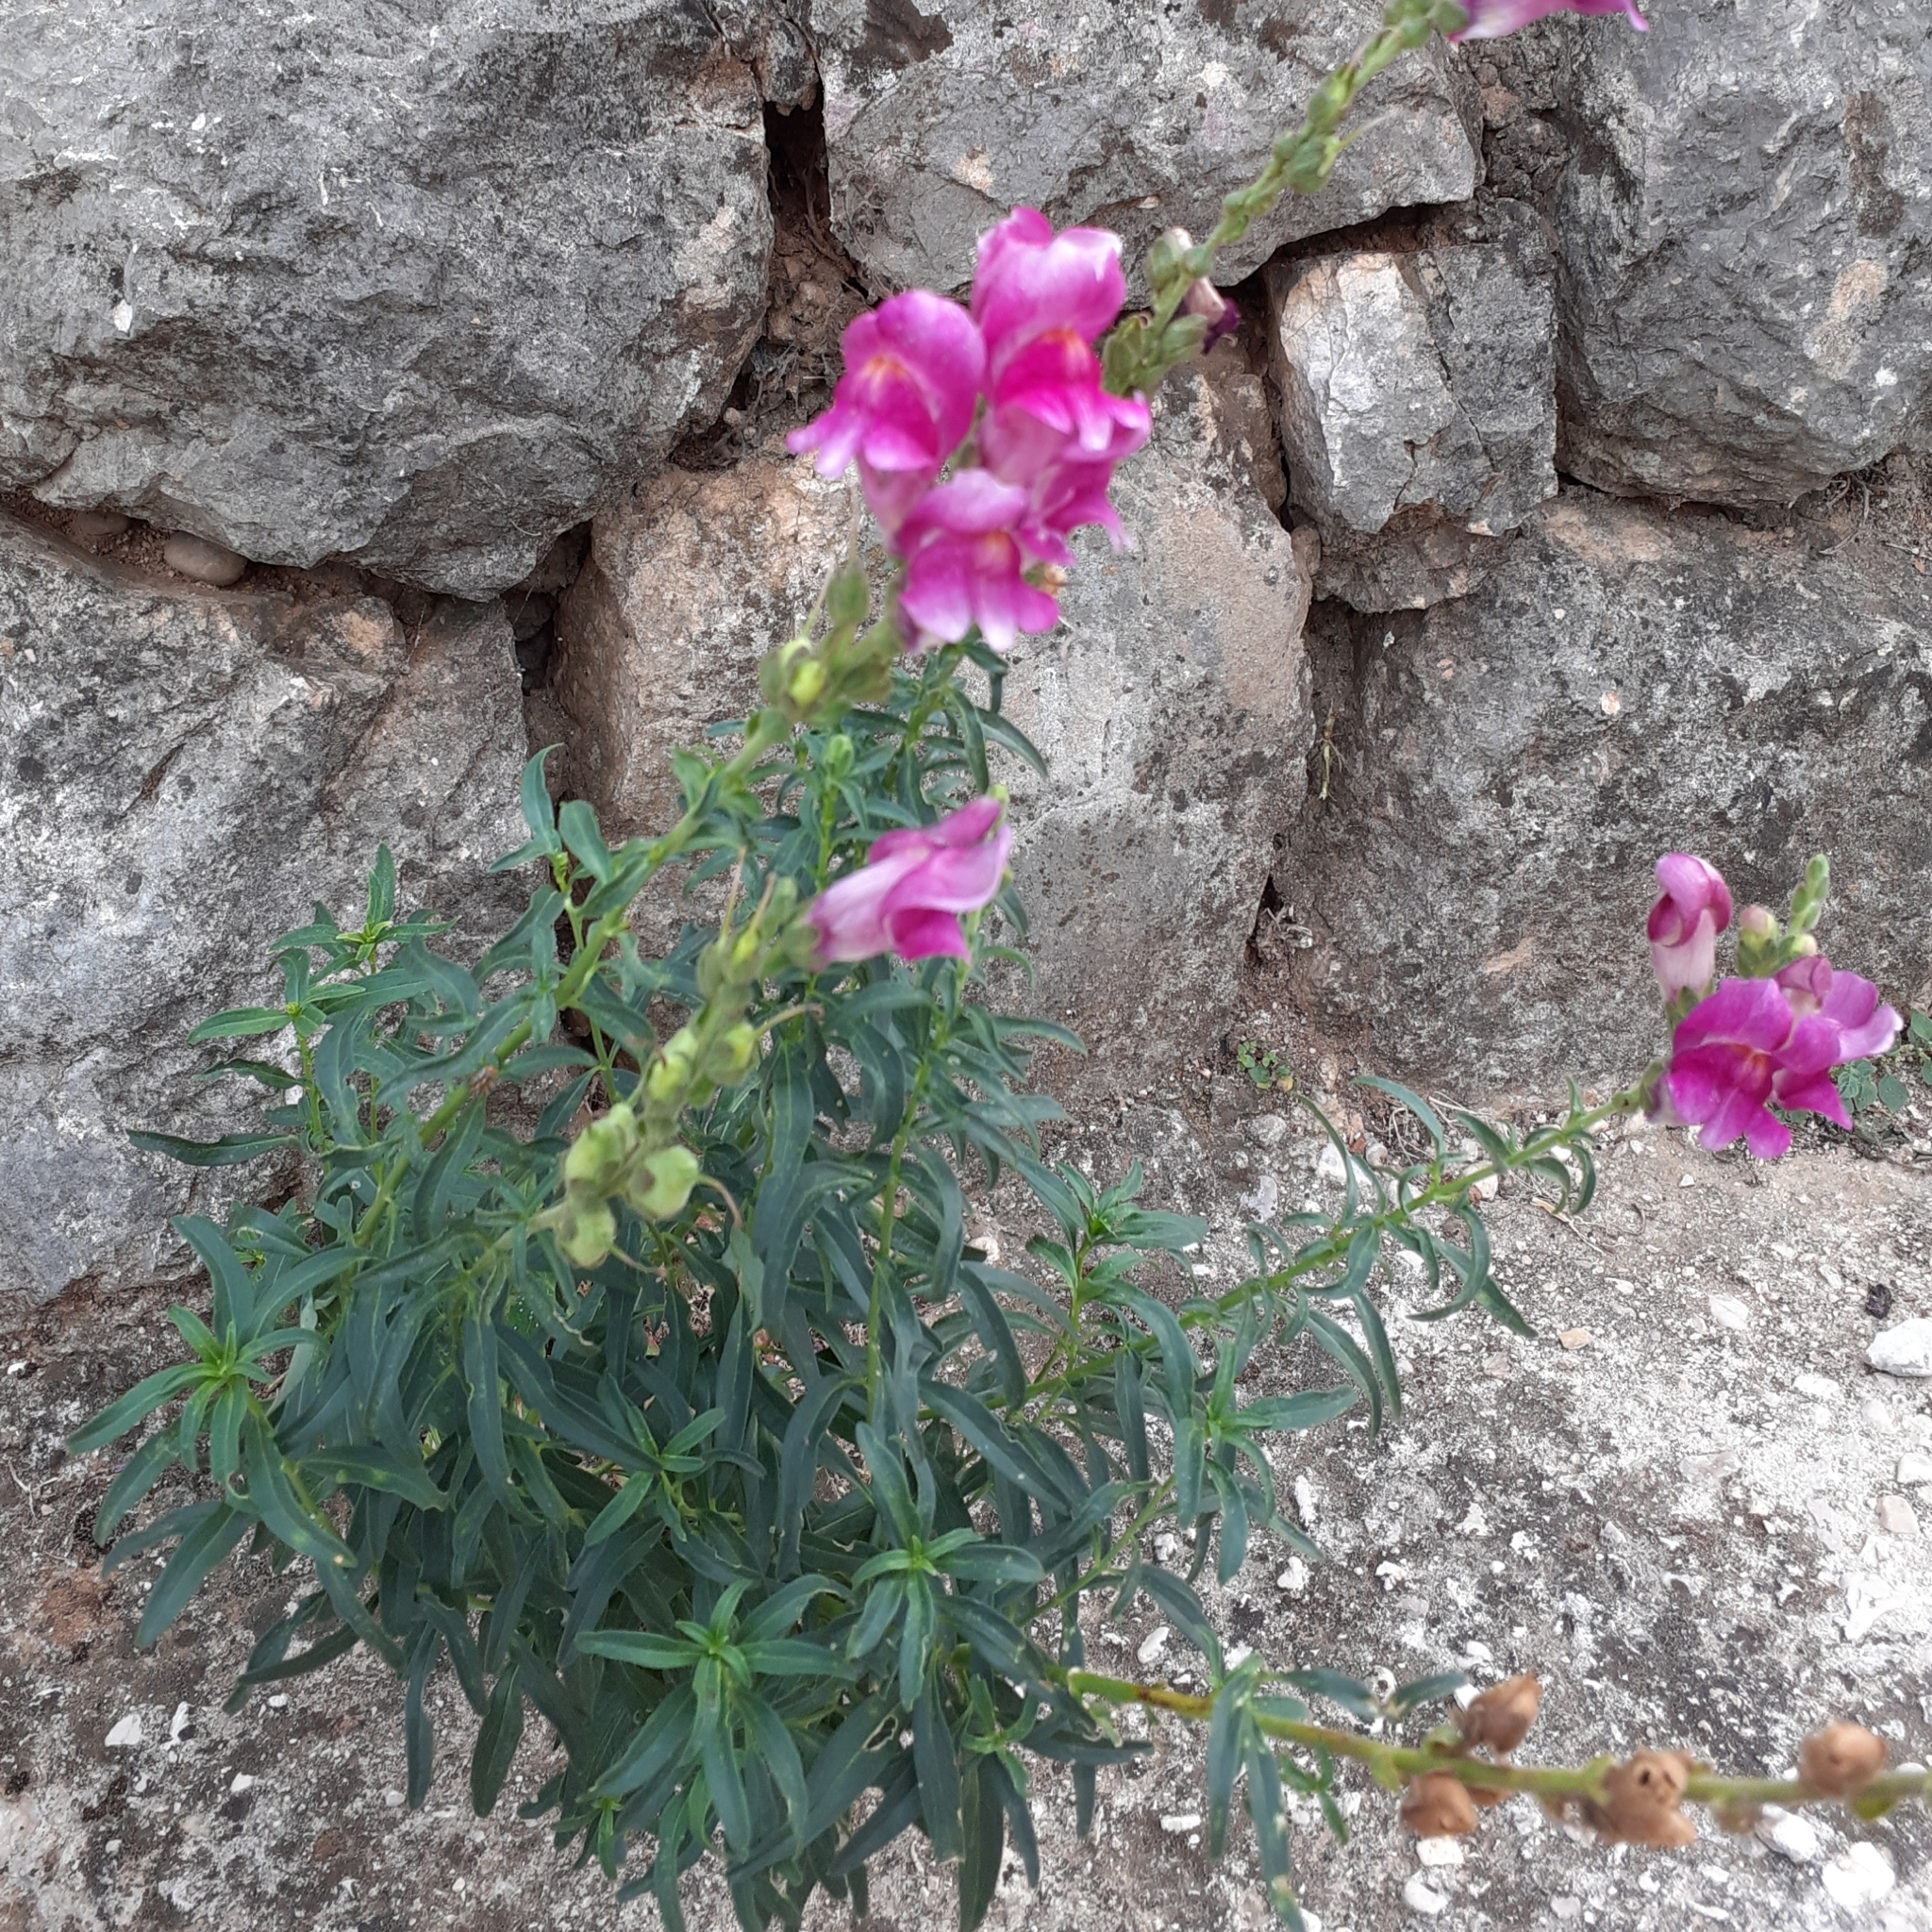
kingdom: Plantae
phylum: Tracheophyta
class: Magnoliopsida
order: Lamiales
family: Plantaginaceae
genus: Antirrhinum
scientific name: Antirrhinum majus
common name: Snapdragon
